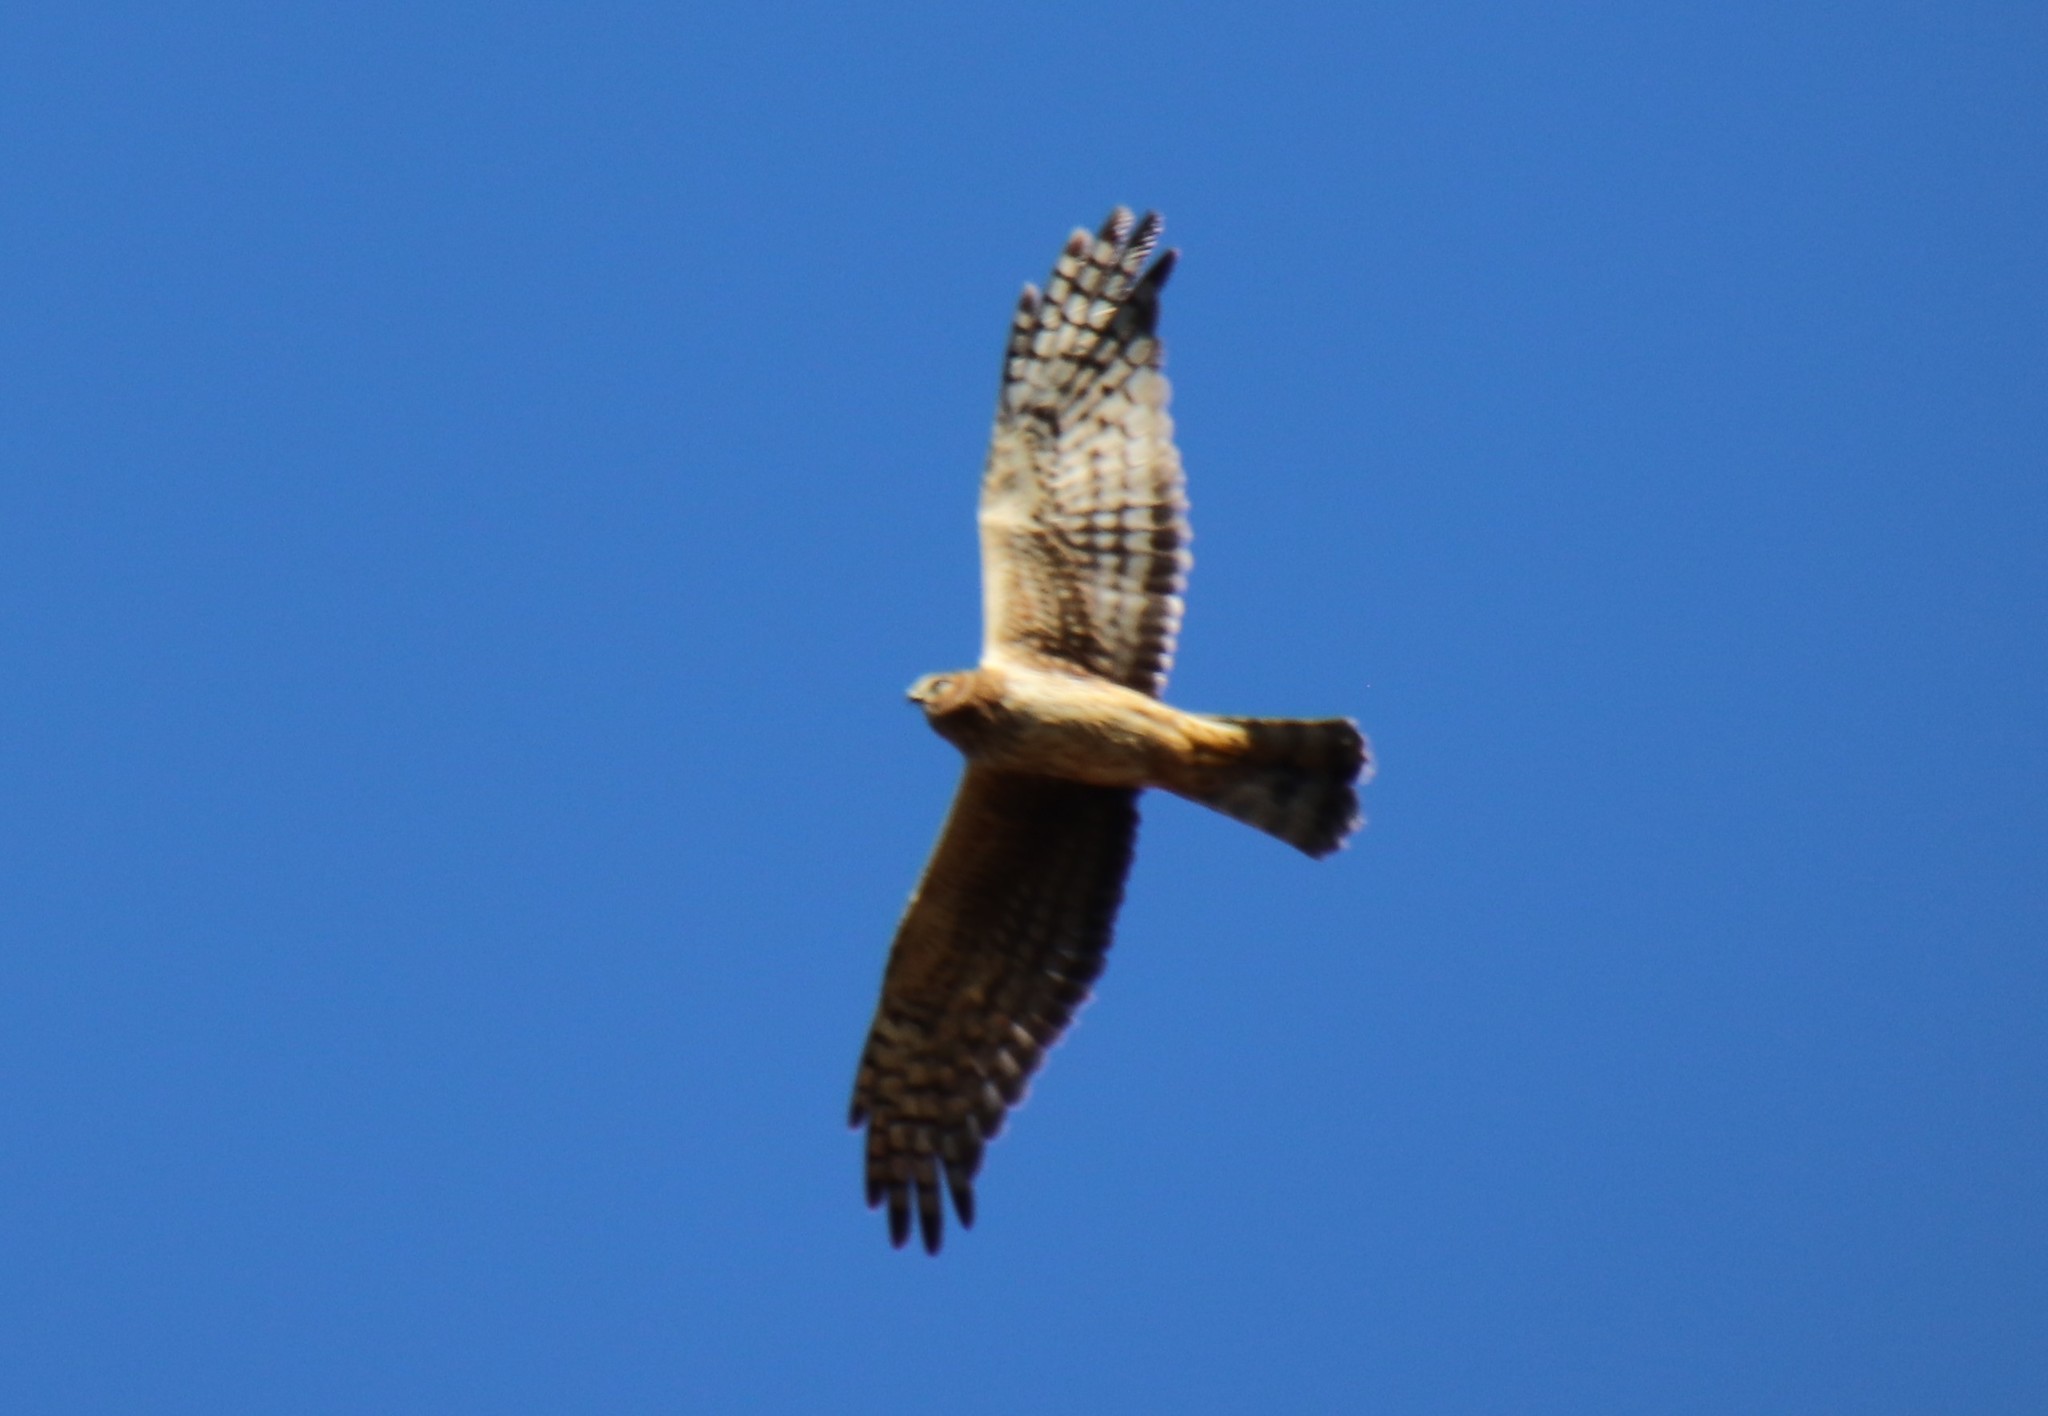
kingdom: Animalia
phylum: Chordata
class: Aves
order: Accipitriformes
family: Accipitridae
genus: Circus
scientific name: Circus cyaneus
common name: Hen harrier
